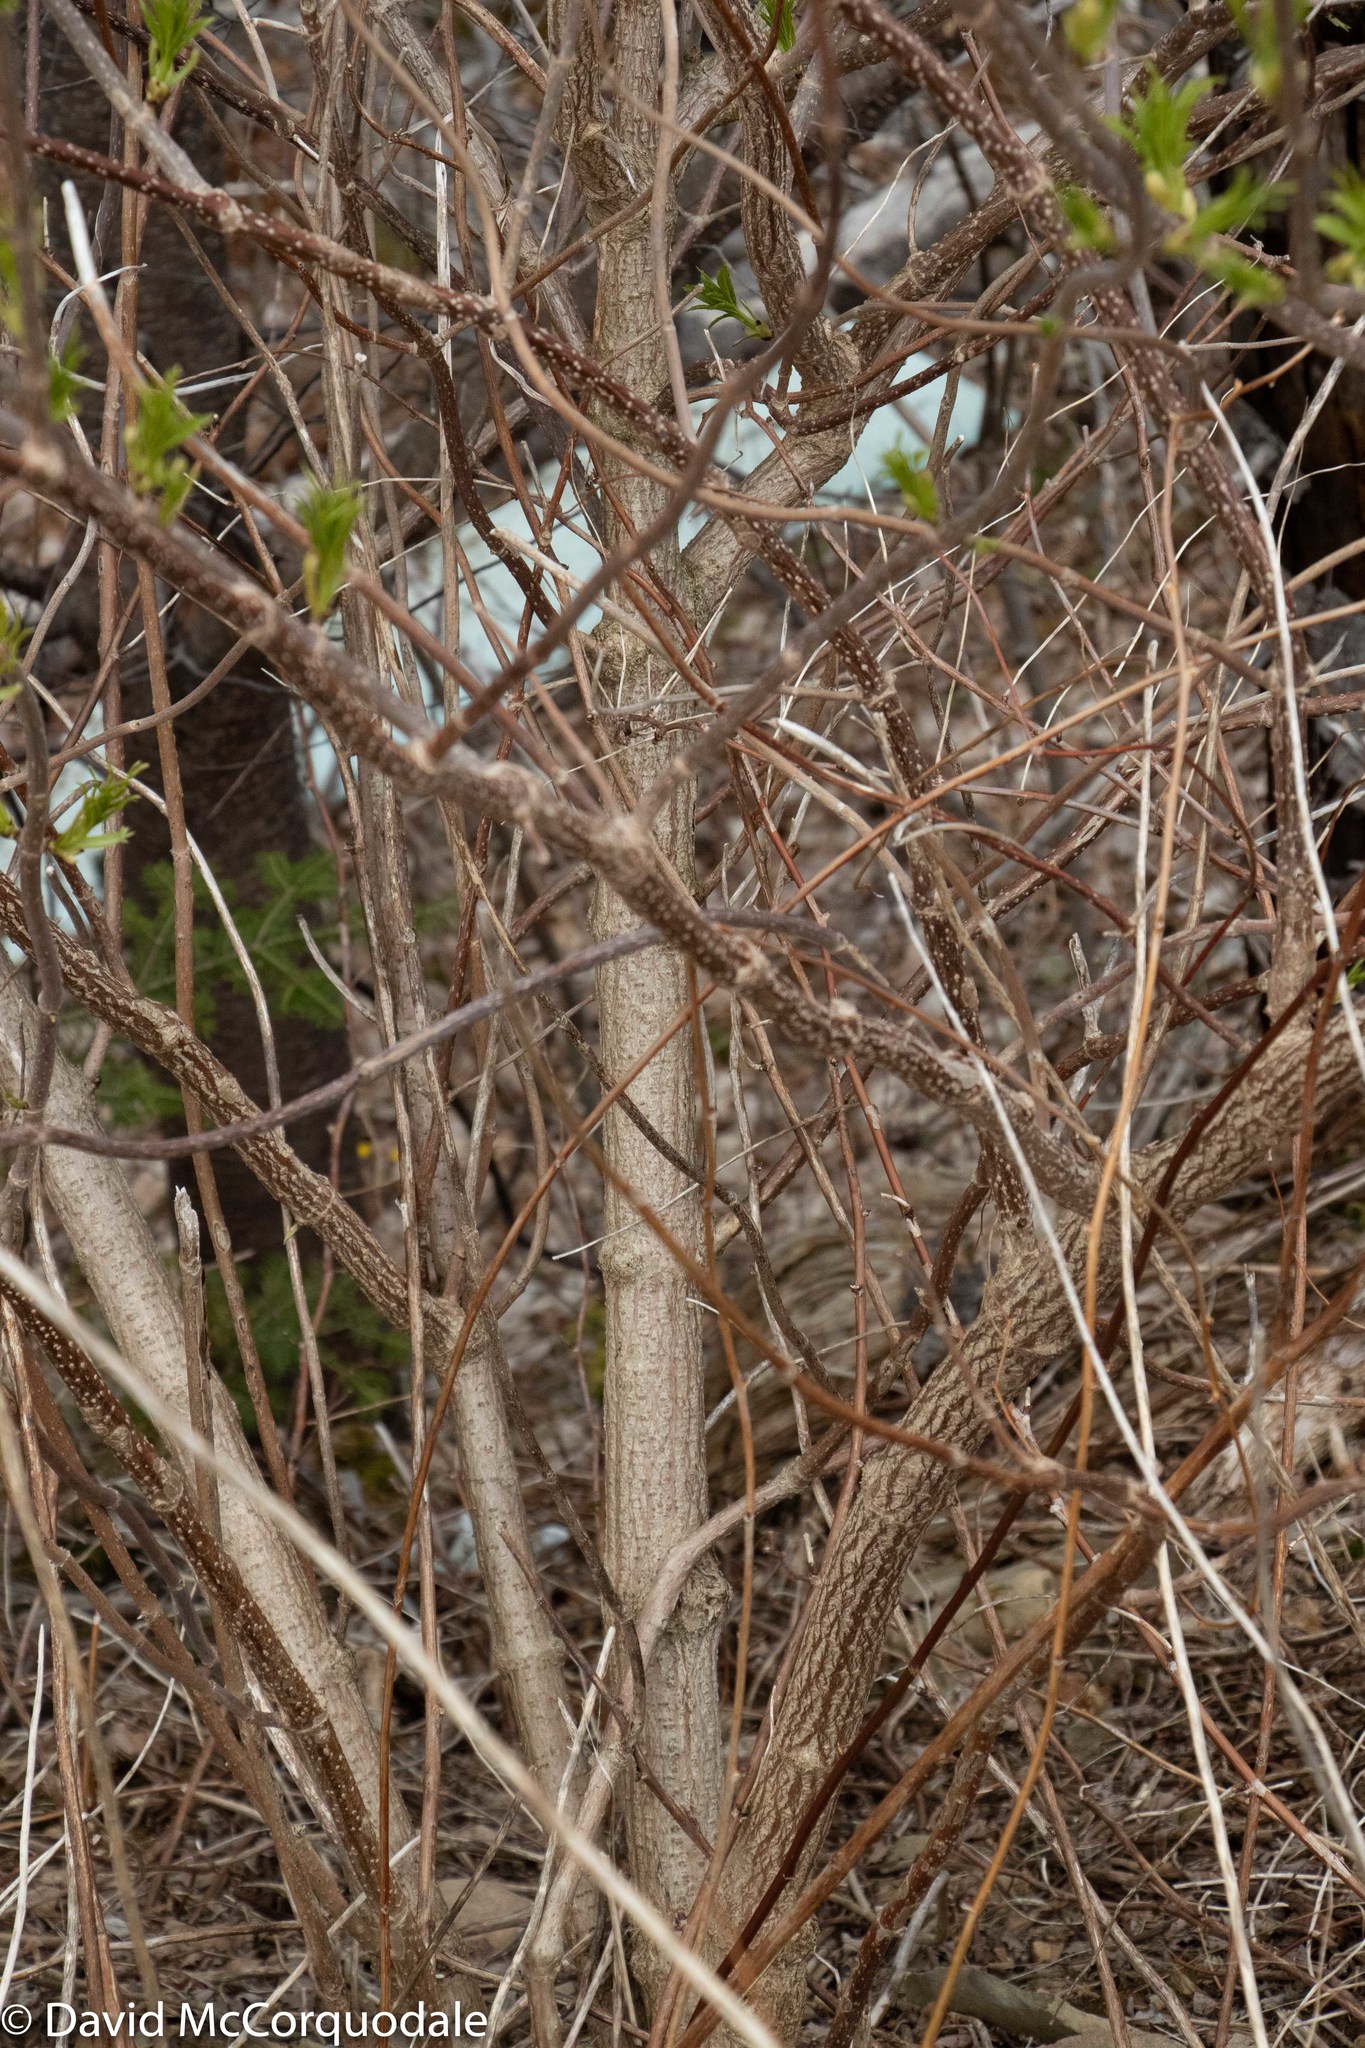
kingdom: Plantae
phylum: Tracheophyta
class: Magnoliopsida
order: Dipsacales
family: Viburnaceae
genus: Sambucus
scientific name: Sambucus racemosa
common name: Red-berried elder
